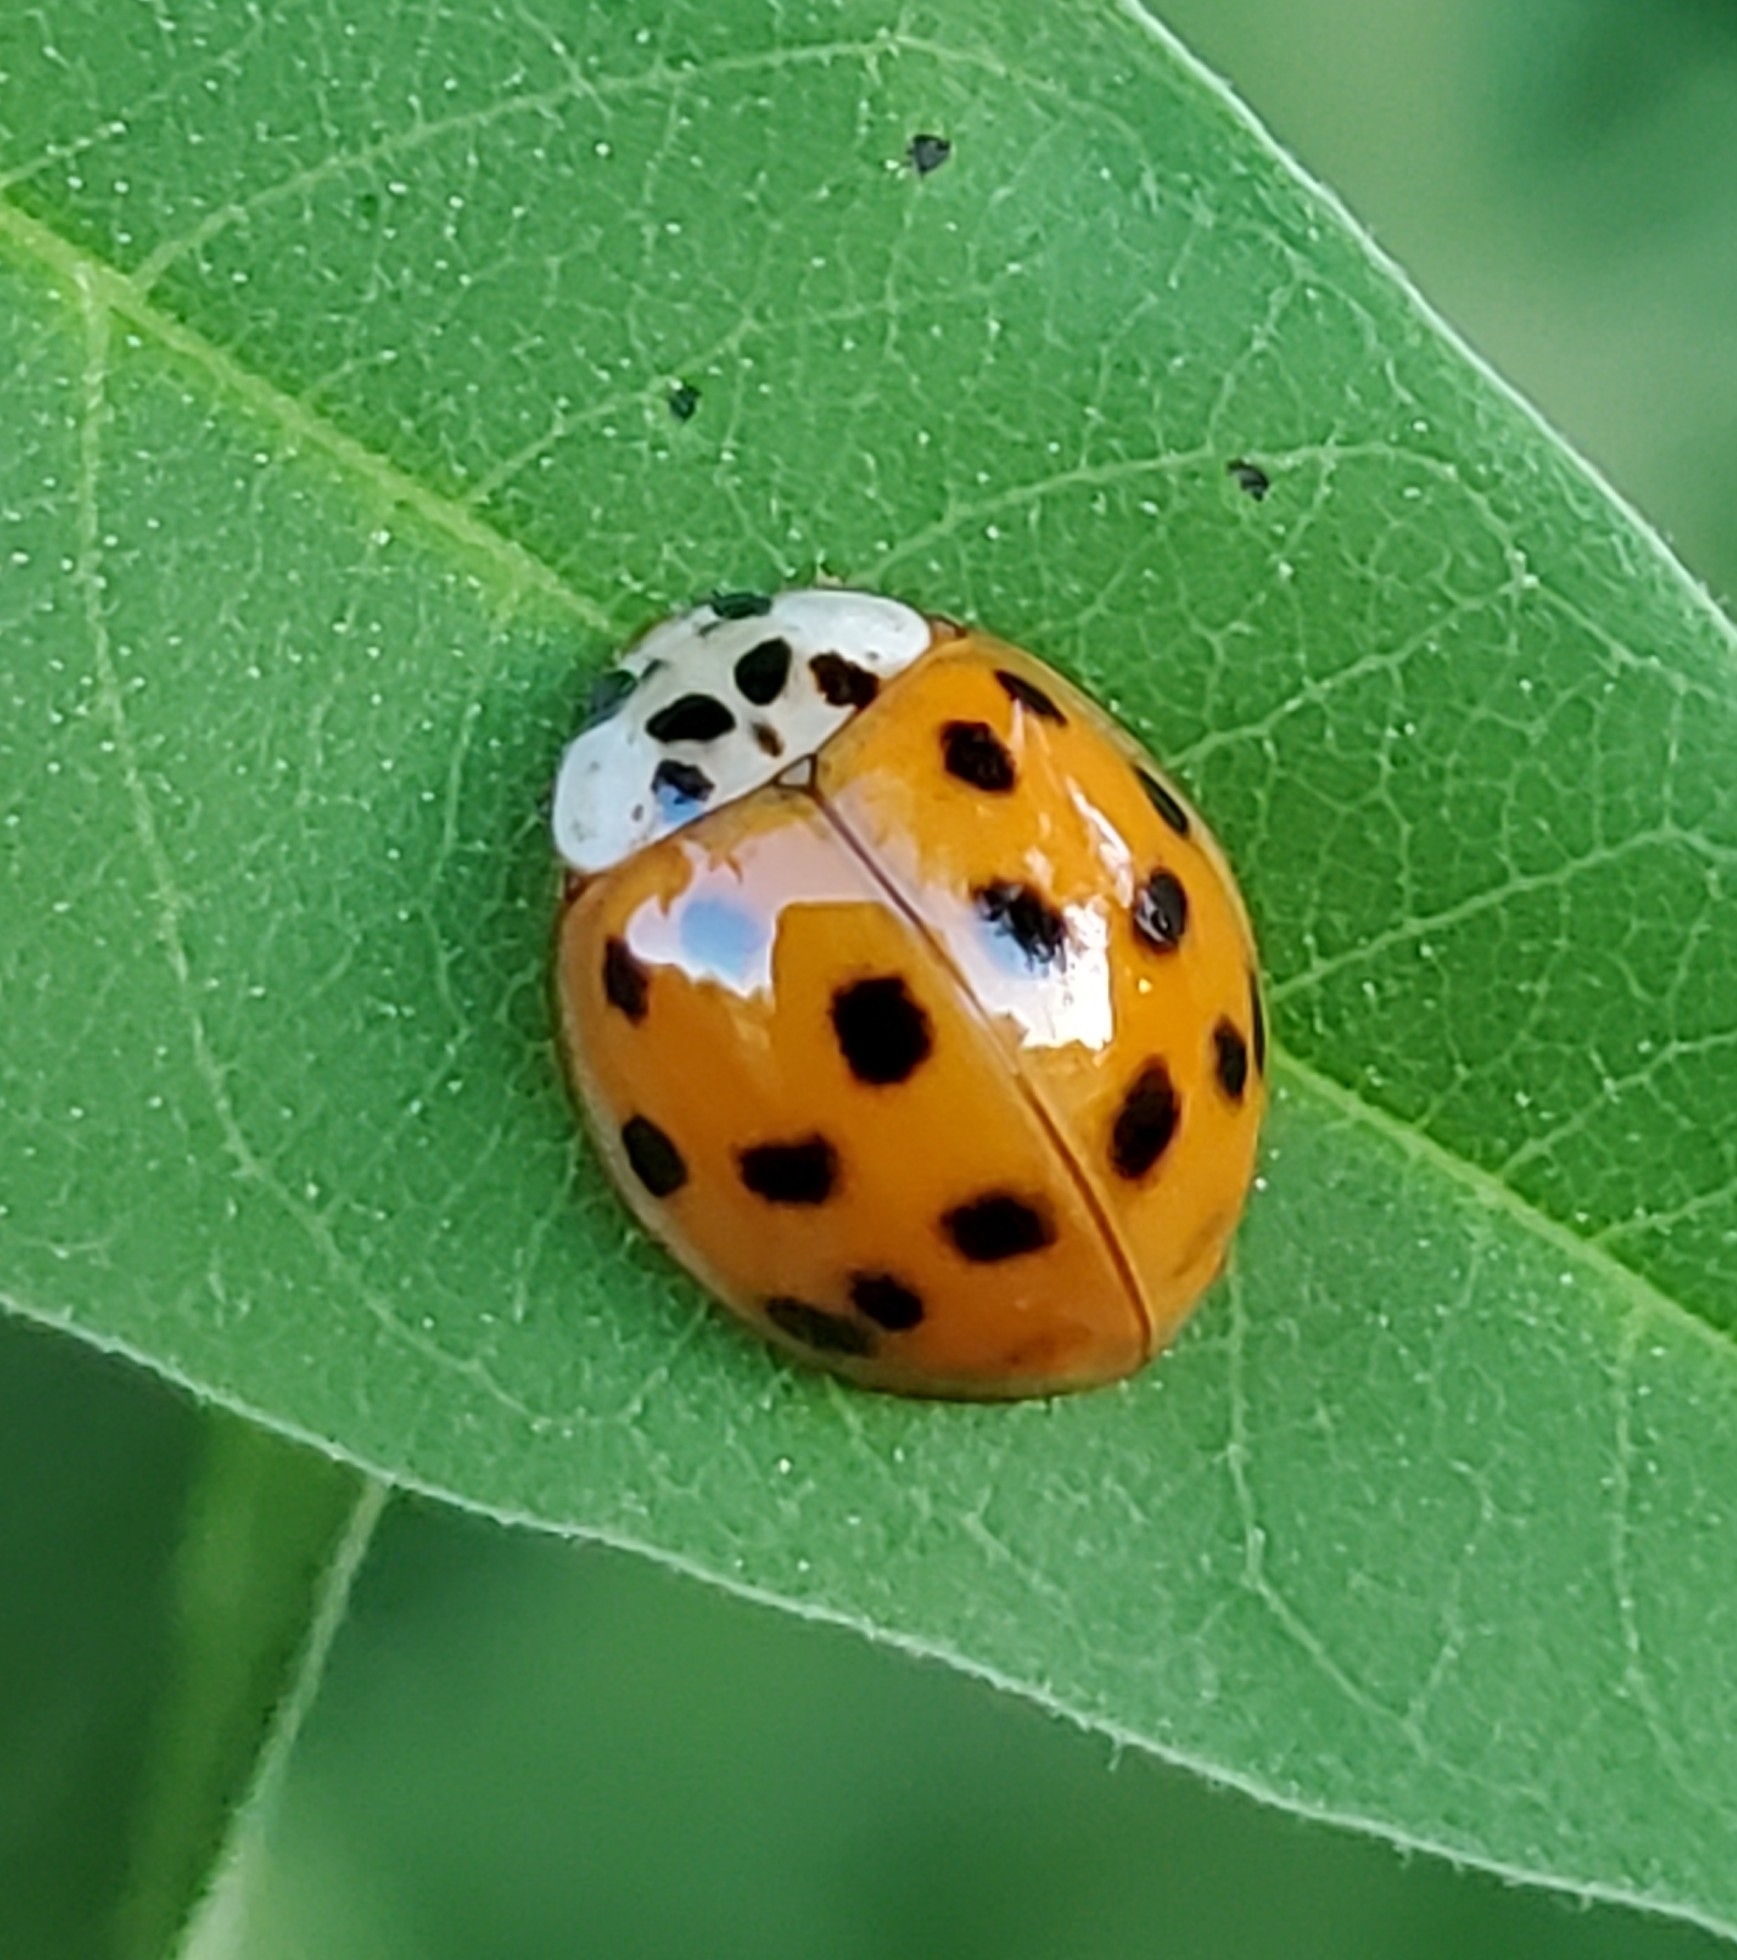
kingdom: Animalia
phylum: Arthropoda
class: Insecta
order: Coleoptera
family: Coccinellidae
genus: Harmonia
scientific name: Harmonia axyridis
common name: Harlequin ladybird
